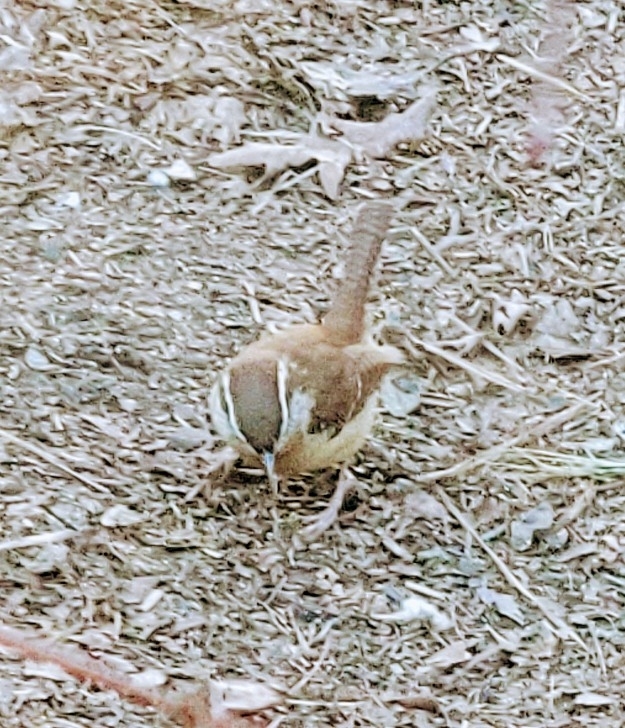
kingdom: Animalia
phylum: Chordata
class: Aves
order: Passeriformes
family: Troglodytidae
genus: Thryothorus
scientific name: Thryothorus ludovicianus
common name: Carolina wren
